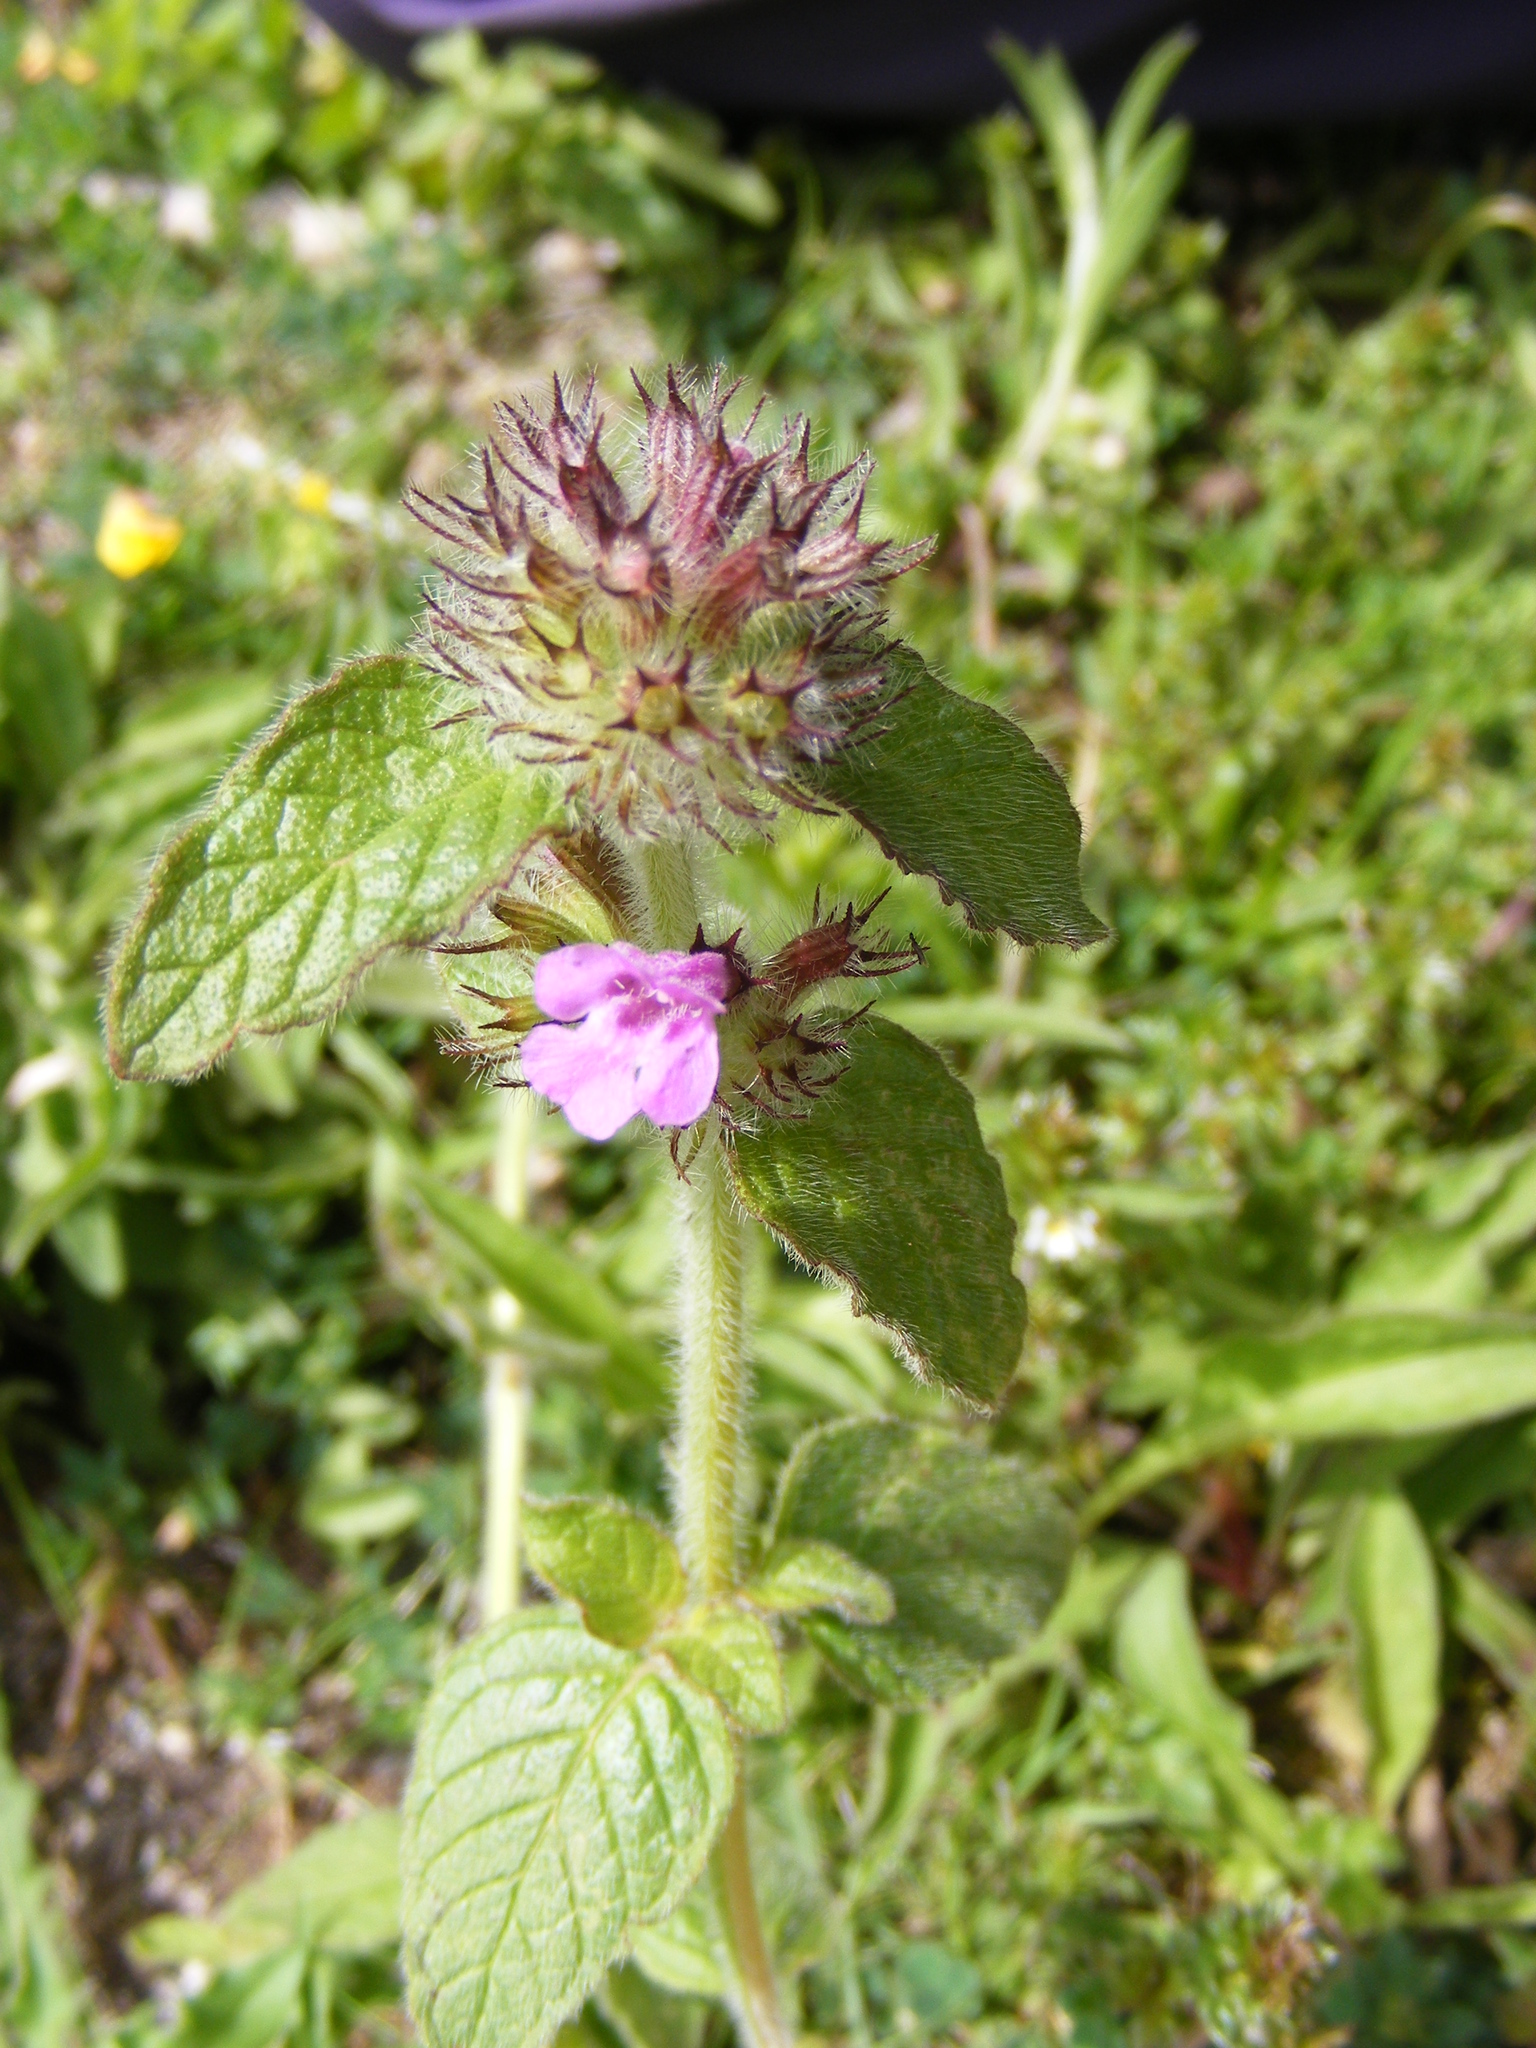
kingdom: Plantae
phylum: Tracheophyta
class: Magnoliopsida
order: Lamiales
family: Lamiaceae
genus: Clinopodium
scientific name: Clinopodium vulgare
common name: Wild basil
